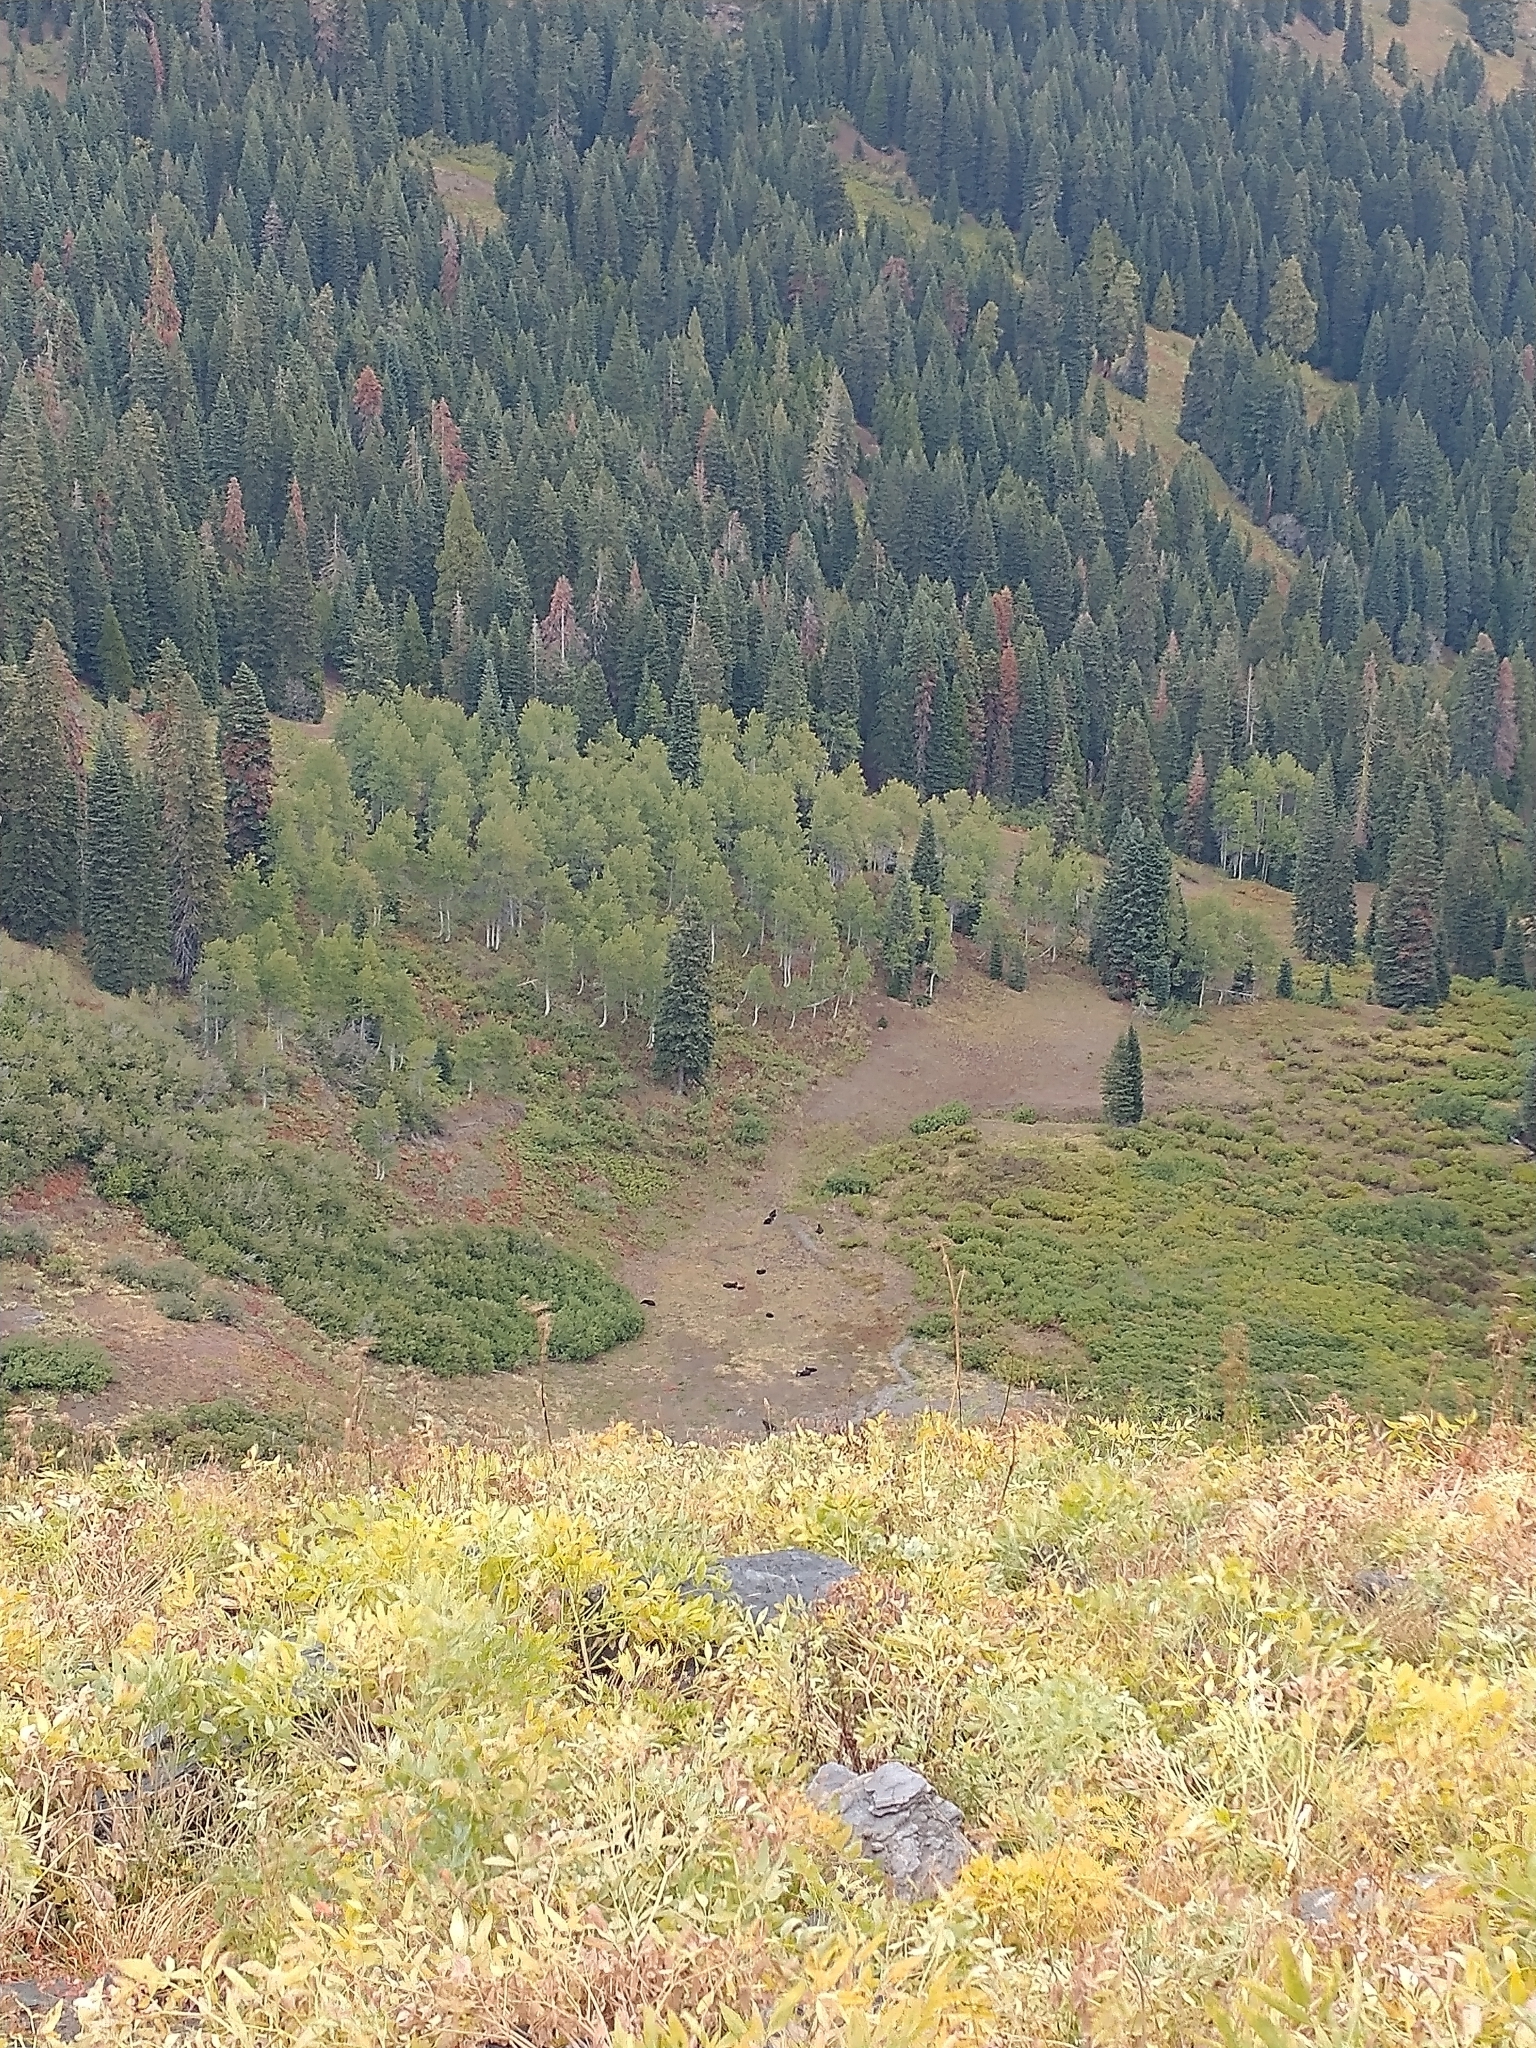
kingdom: Plantae
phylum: Tracheophyta
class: Magnoliopsida
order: Malpighiales
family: Salicaceae
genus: Populus
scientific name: Populus tremuloides
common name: Quaking aspen
